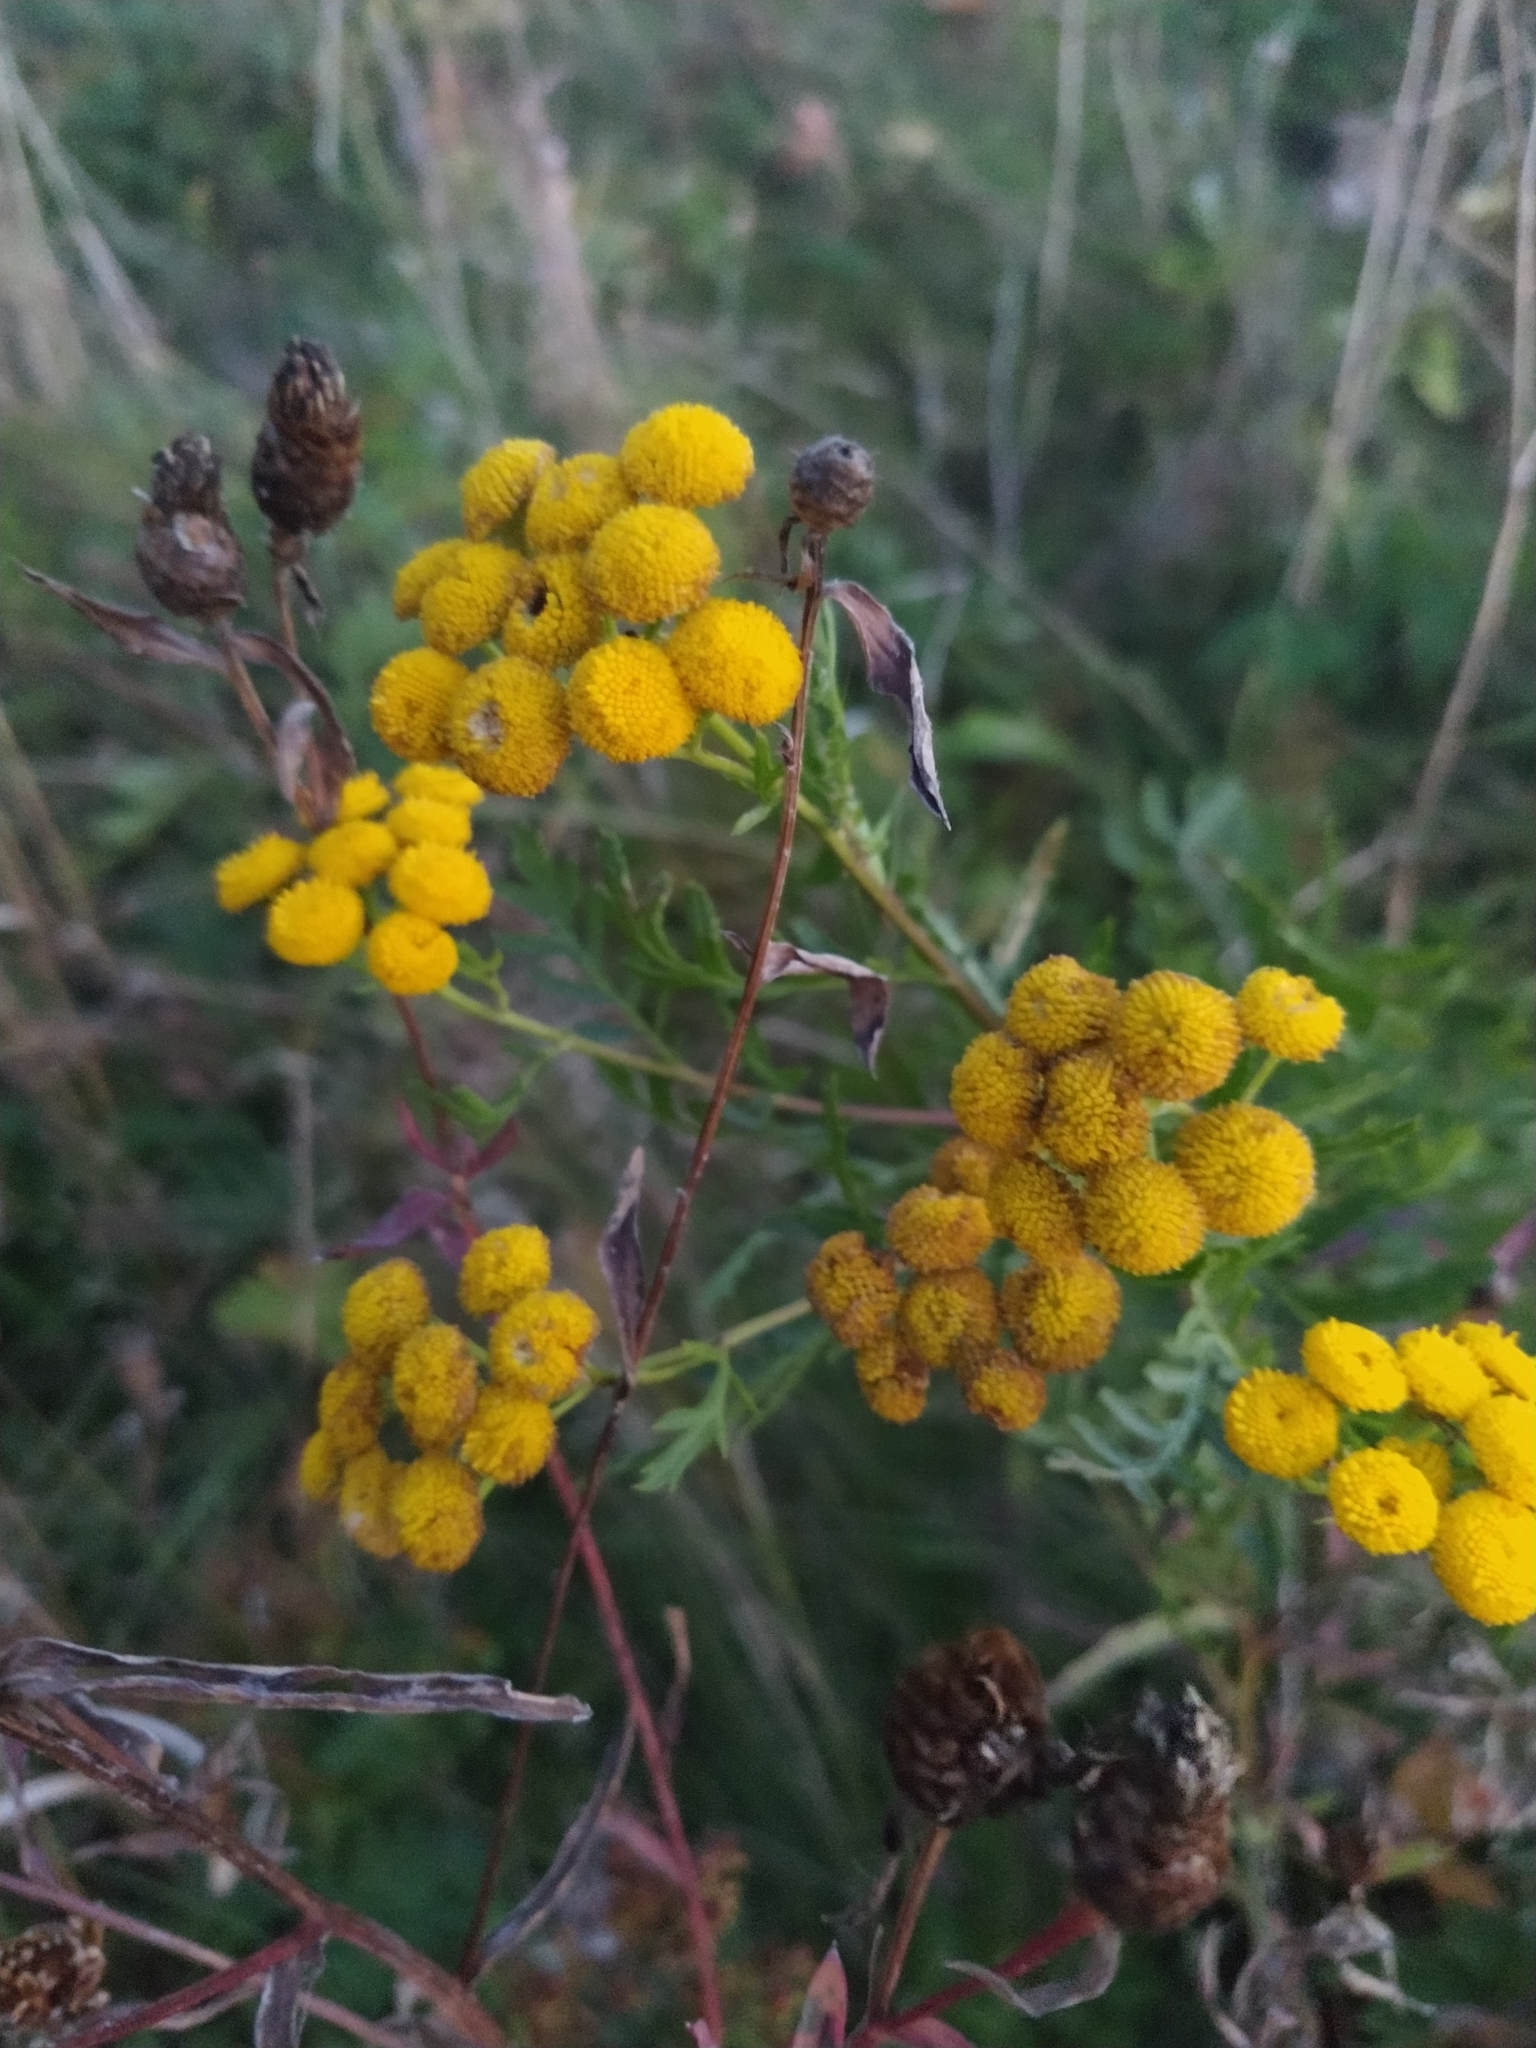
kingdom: Plantae
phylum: Tracheophyta
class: Magnoliopsida
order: Asterales
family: Asteraceae
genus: Tanacetum
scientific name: Tanacetum vulgare
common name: Common tansy
